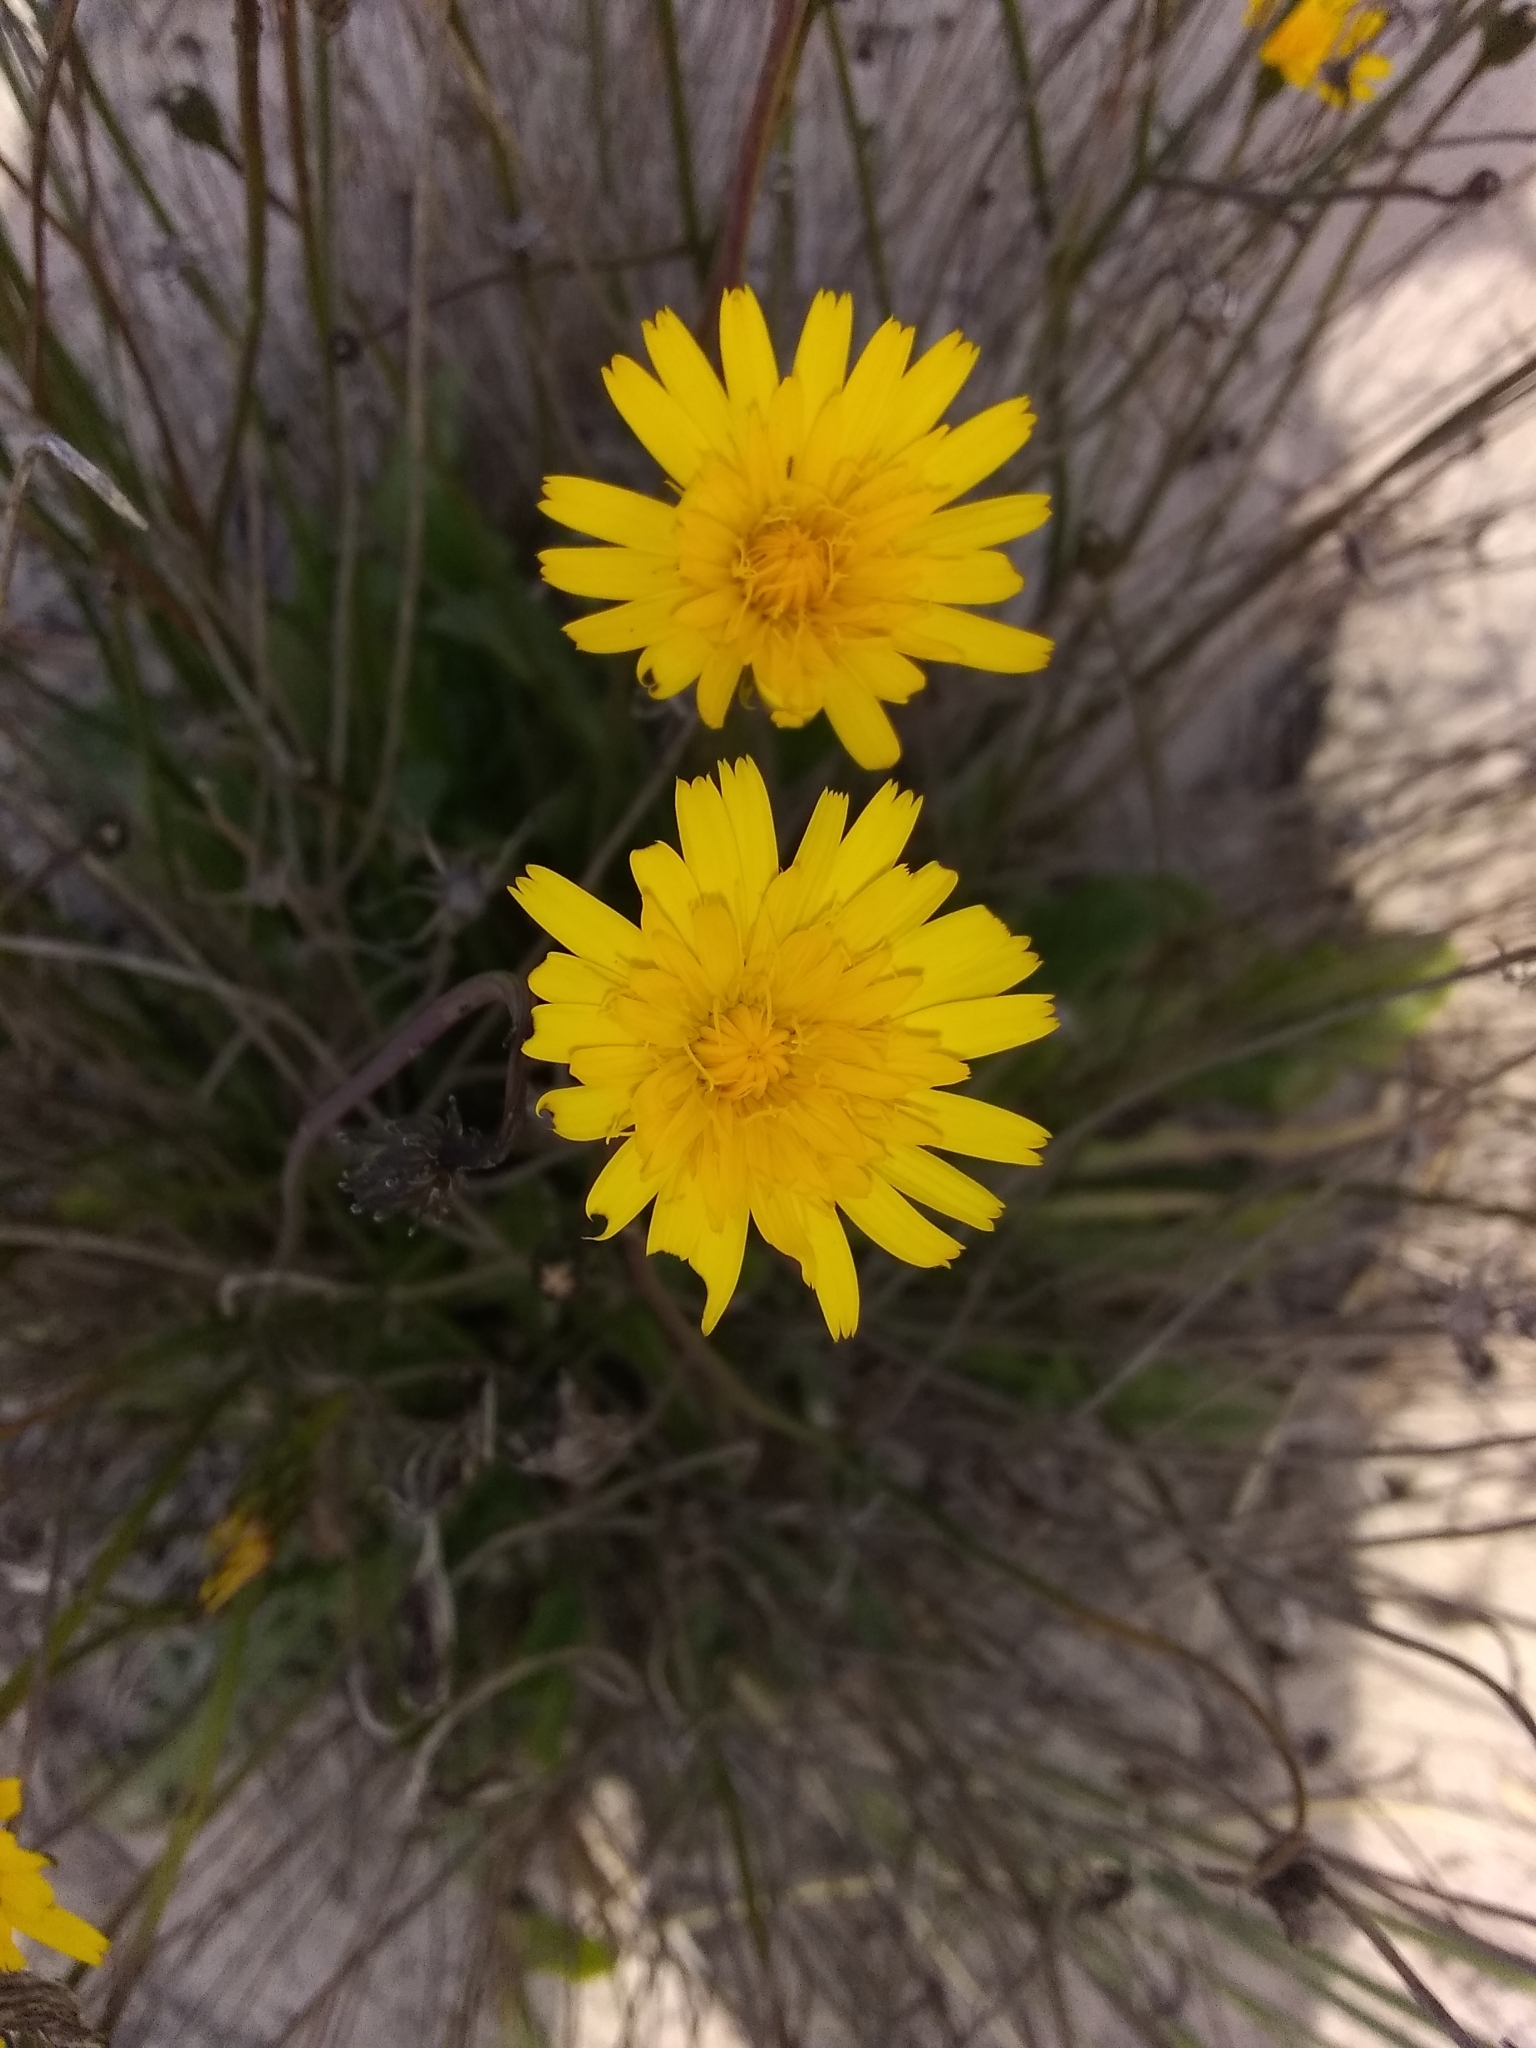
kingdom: Plantae
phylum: Tracheophyta
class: Magnoliopsida
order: Asterales
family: Asteraceae
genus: Hypochaeris
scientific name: Hypochaeris radicata
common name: Flatweed
